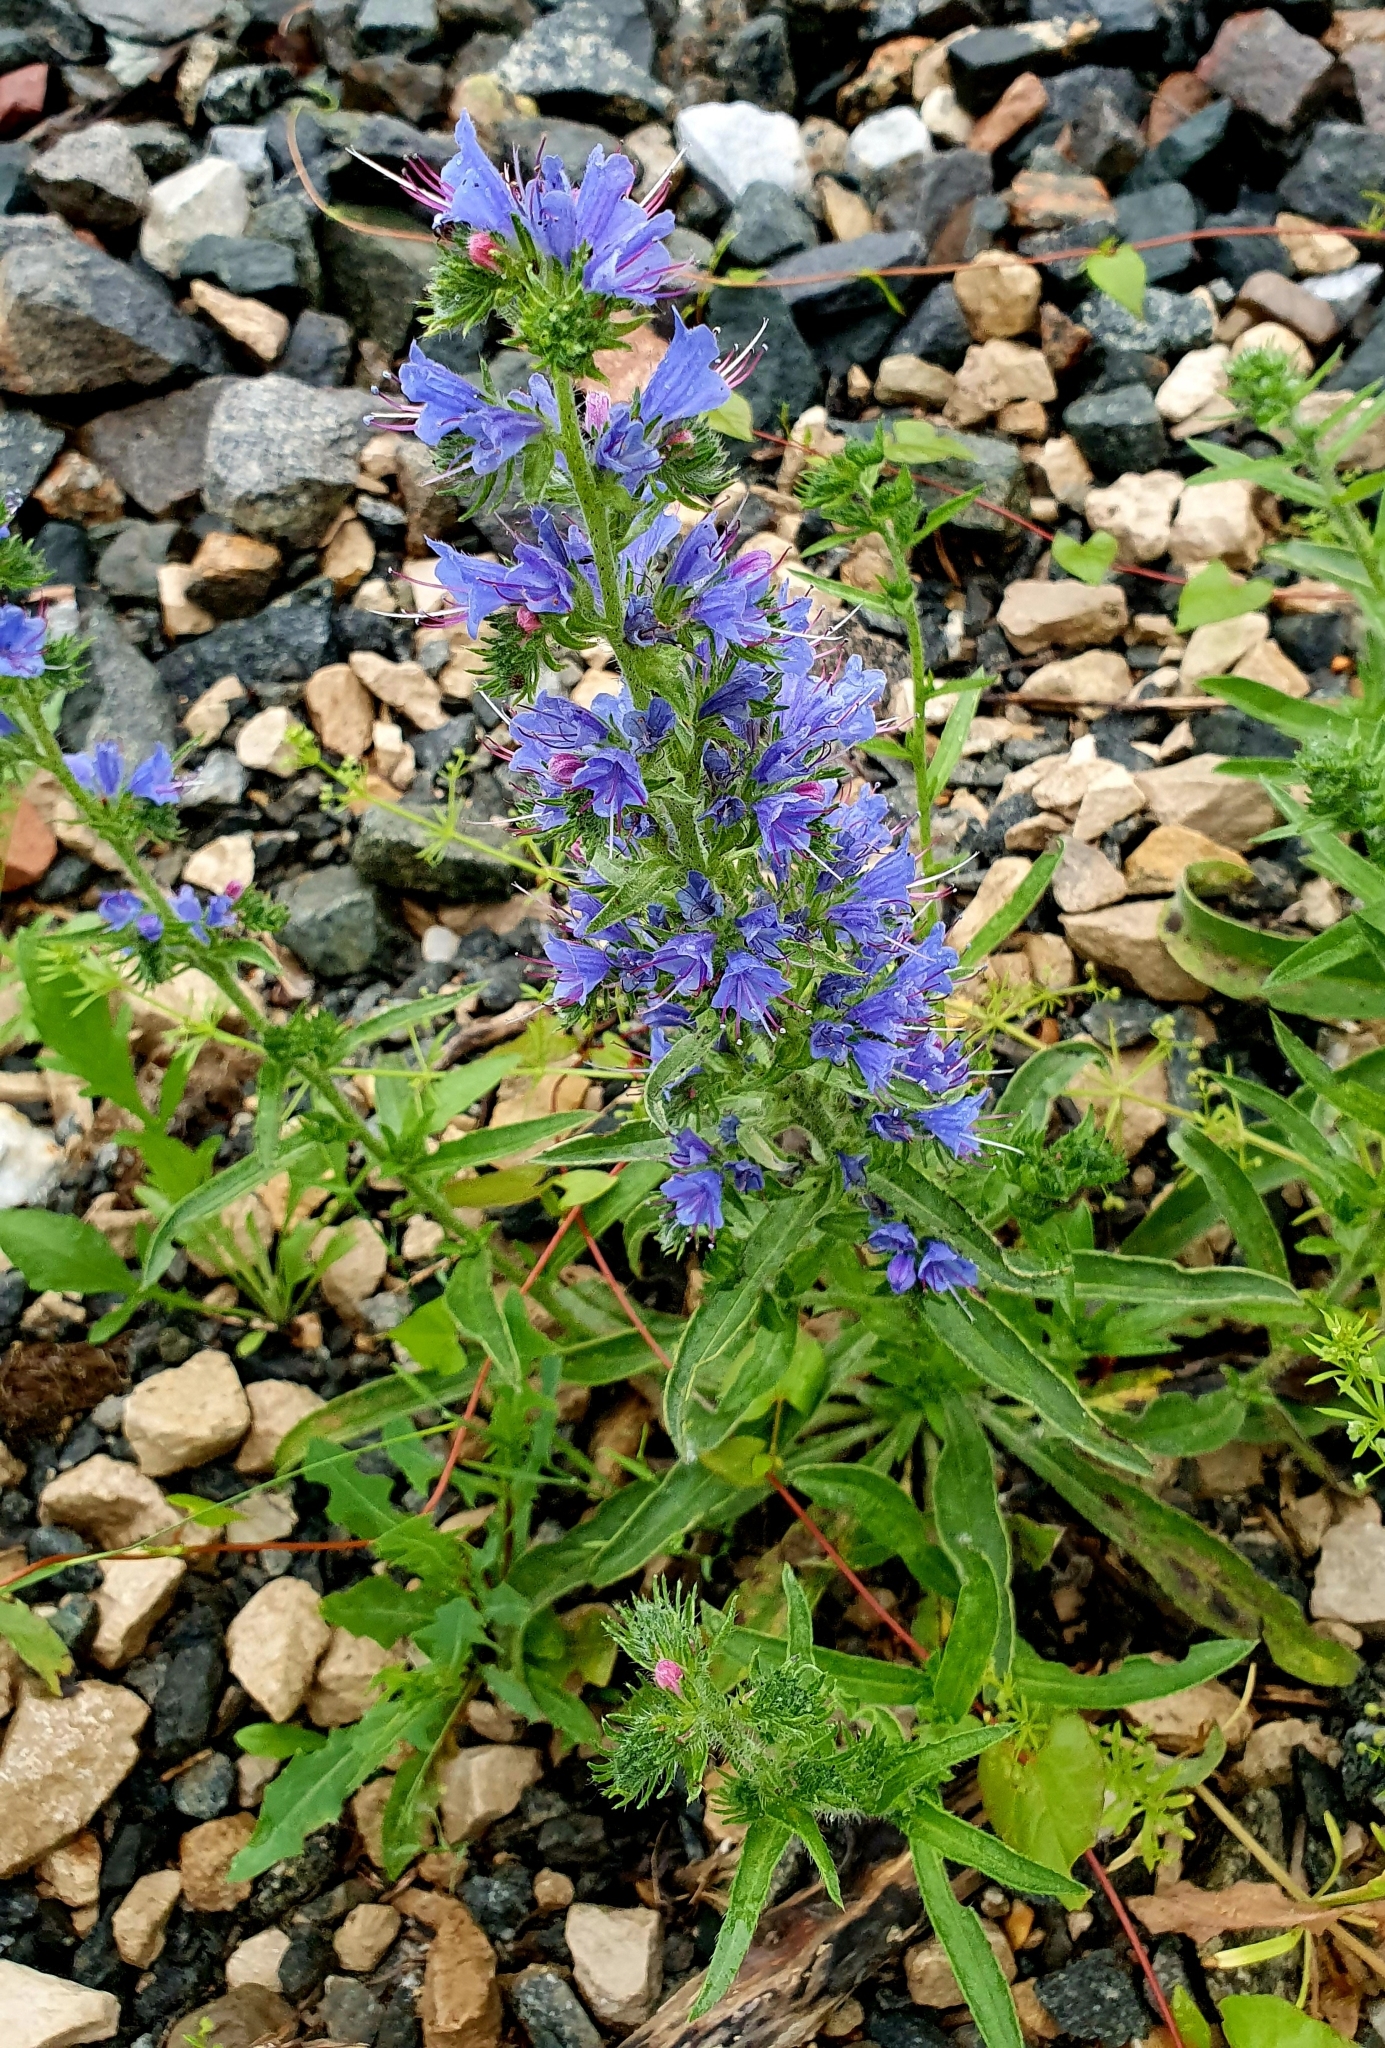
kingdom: Plantae
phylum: Tracheophyta
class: Magnoliopsida
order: Boraginales
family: Boraginaceae
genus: Echium
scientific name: Echium vulgare
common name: Common viper's bugloss
